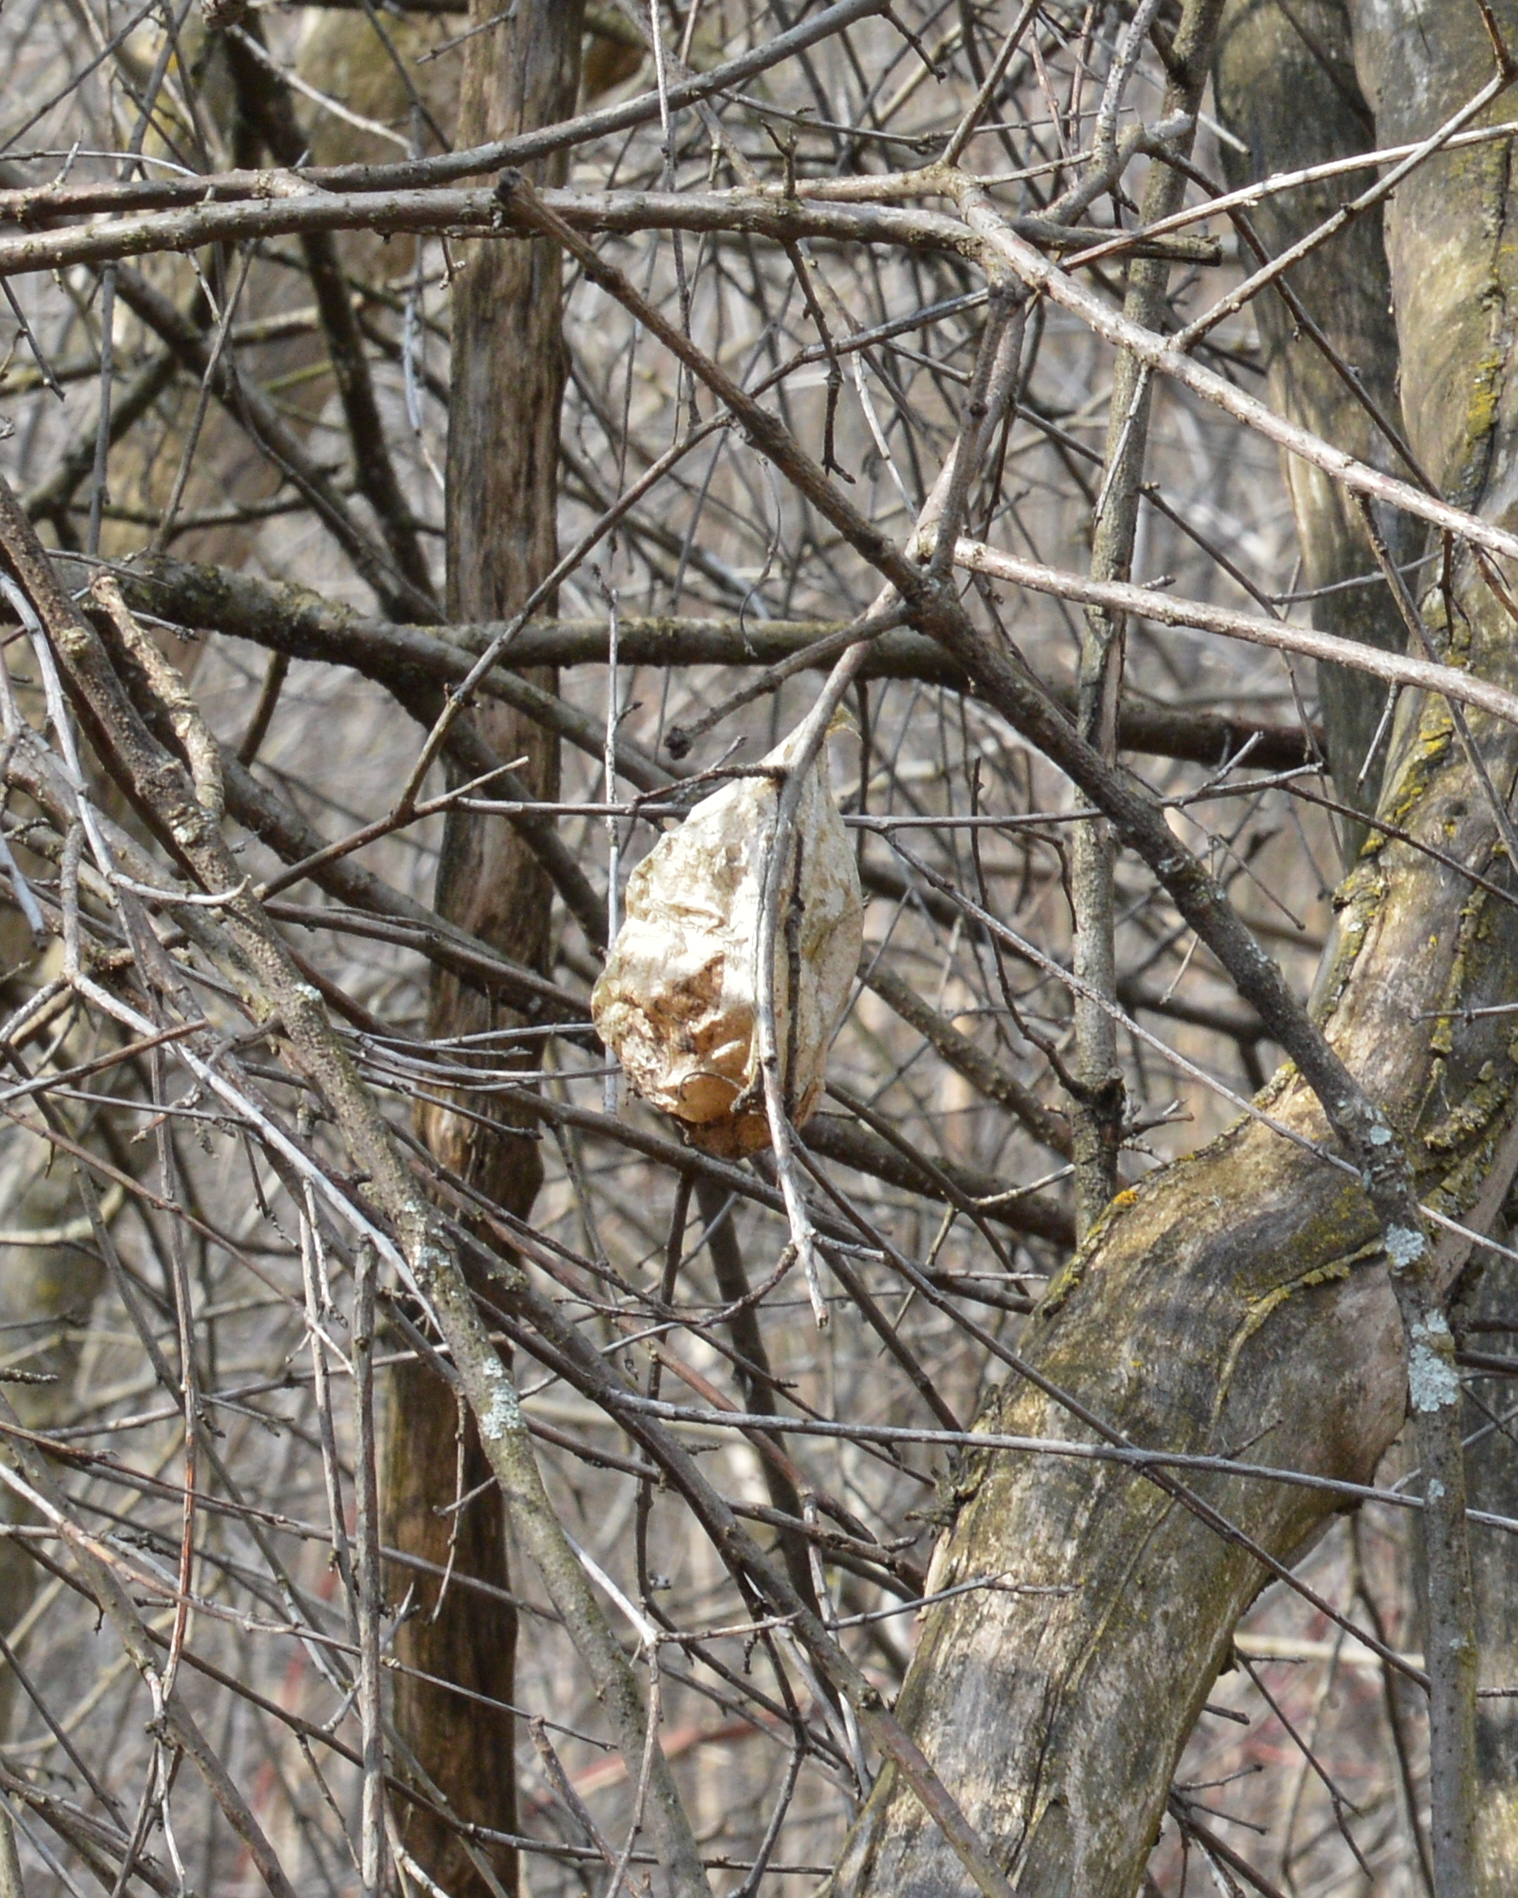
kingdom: Animalia
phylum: Arthropoda
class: Insecta
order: Lepidoptera
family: Saturniidae
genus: Hyalophora
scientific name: Hyalophora cecropia
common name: Cecropia silkmoth
